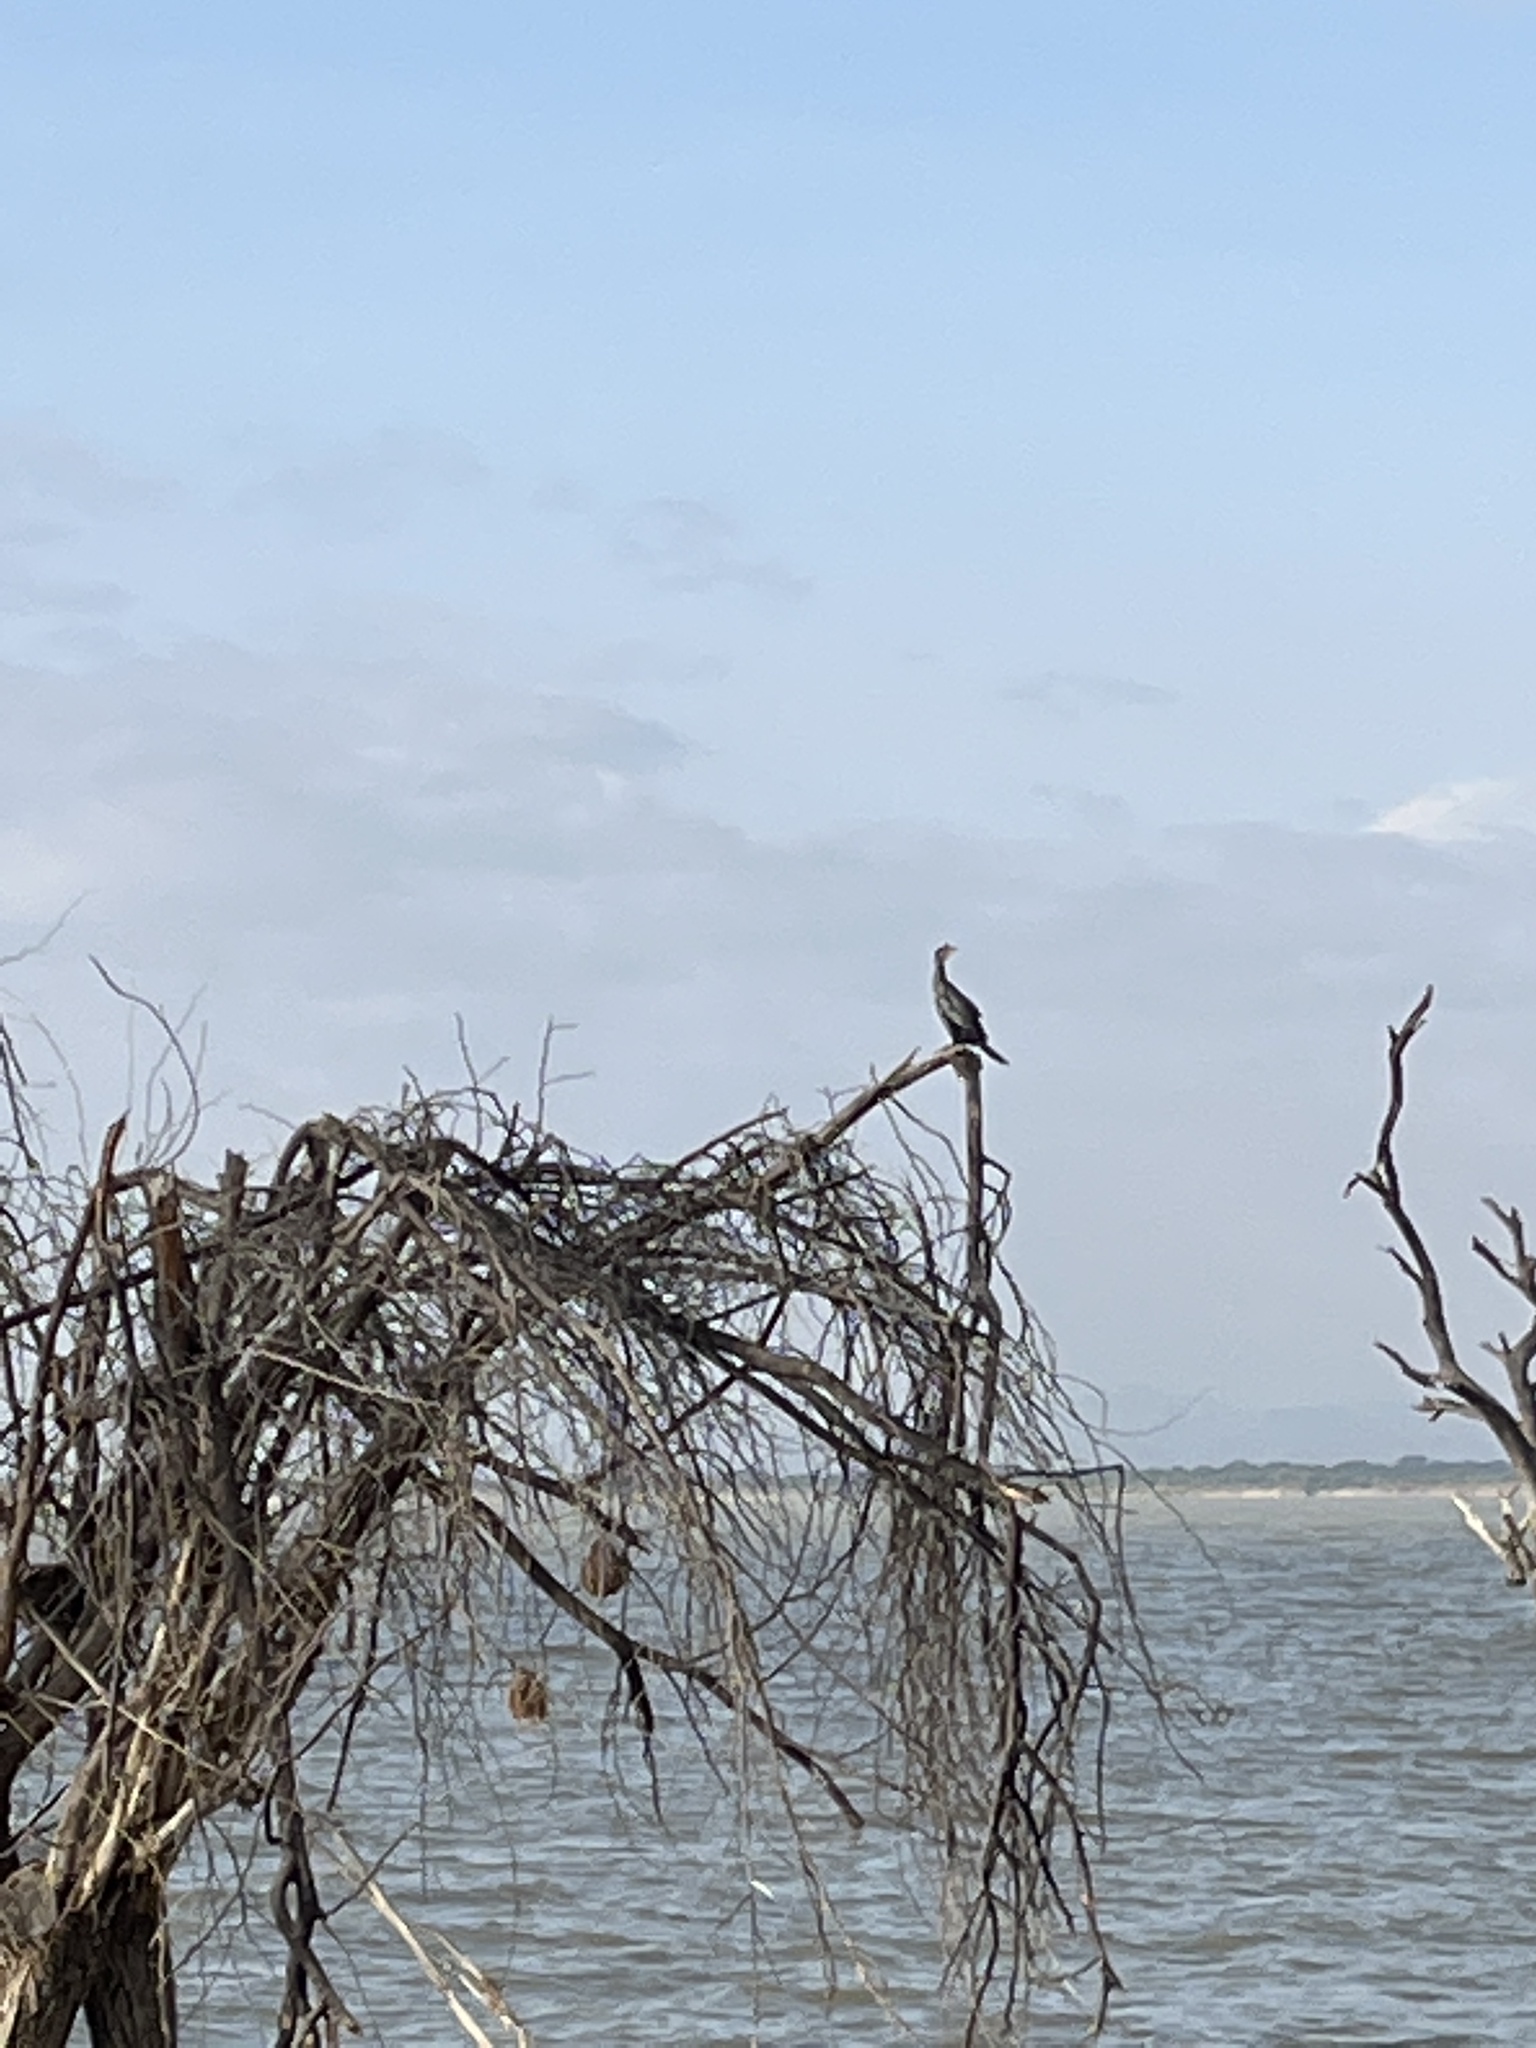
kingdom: Animalia
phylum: Chordata
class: Aves
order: Suliformes
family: Phalacrocoracidae
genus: Microcarbo
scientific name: Microcarbo africanus
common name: Long-tailed cormorant
